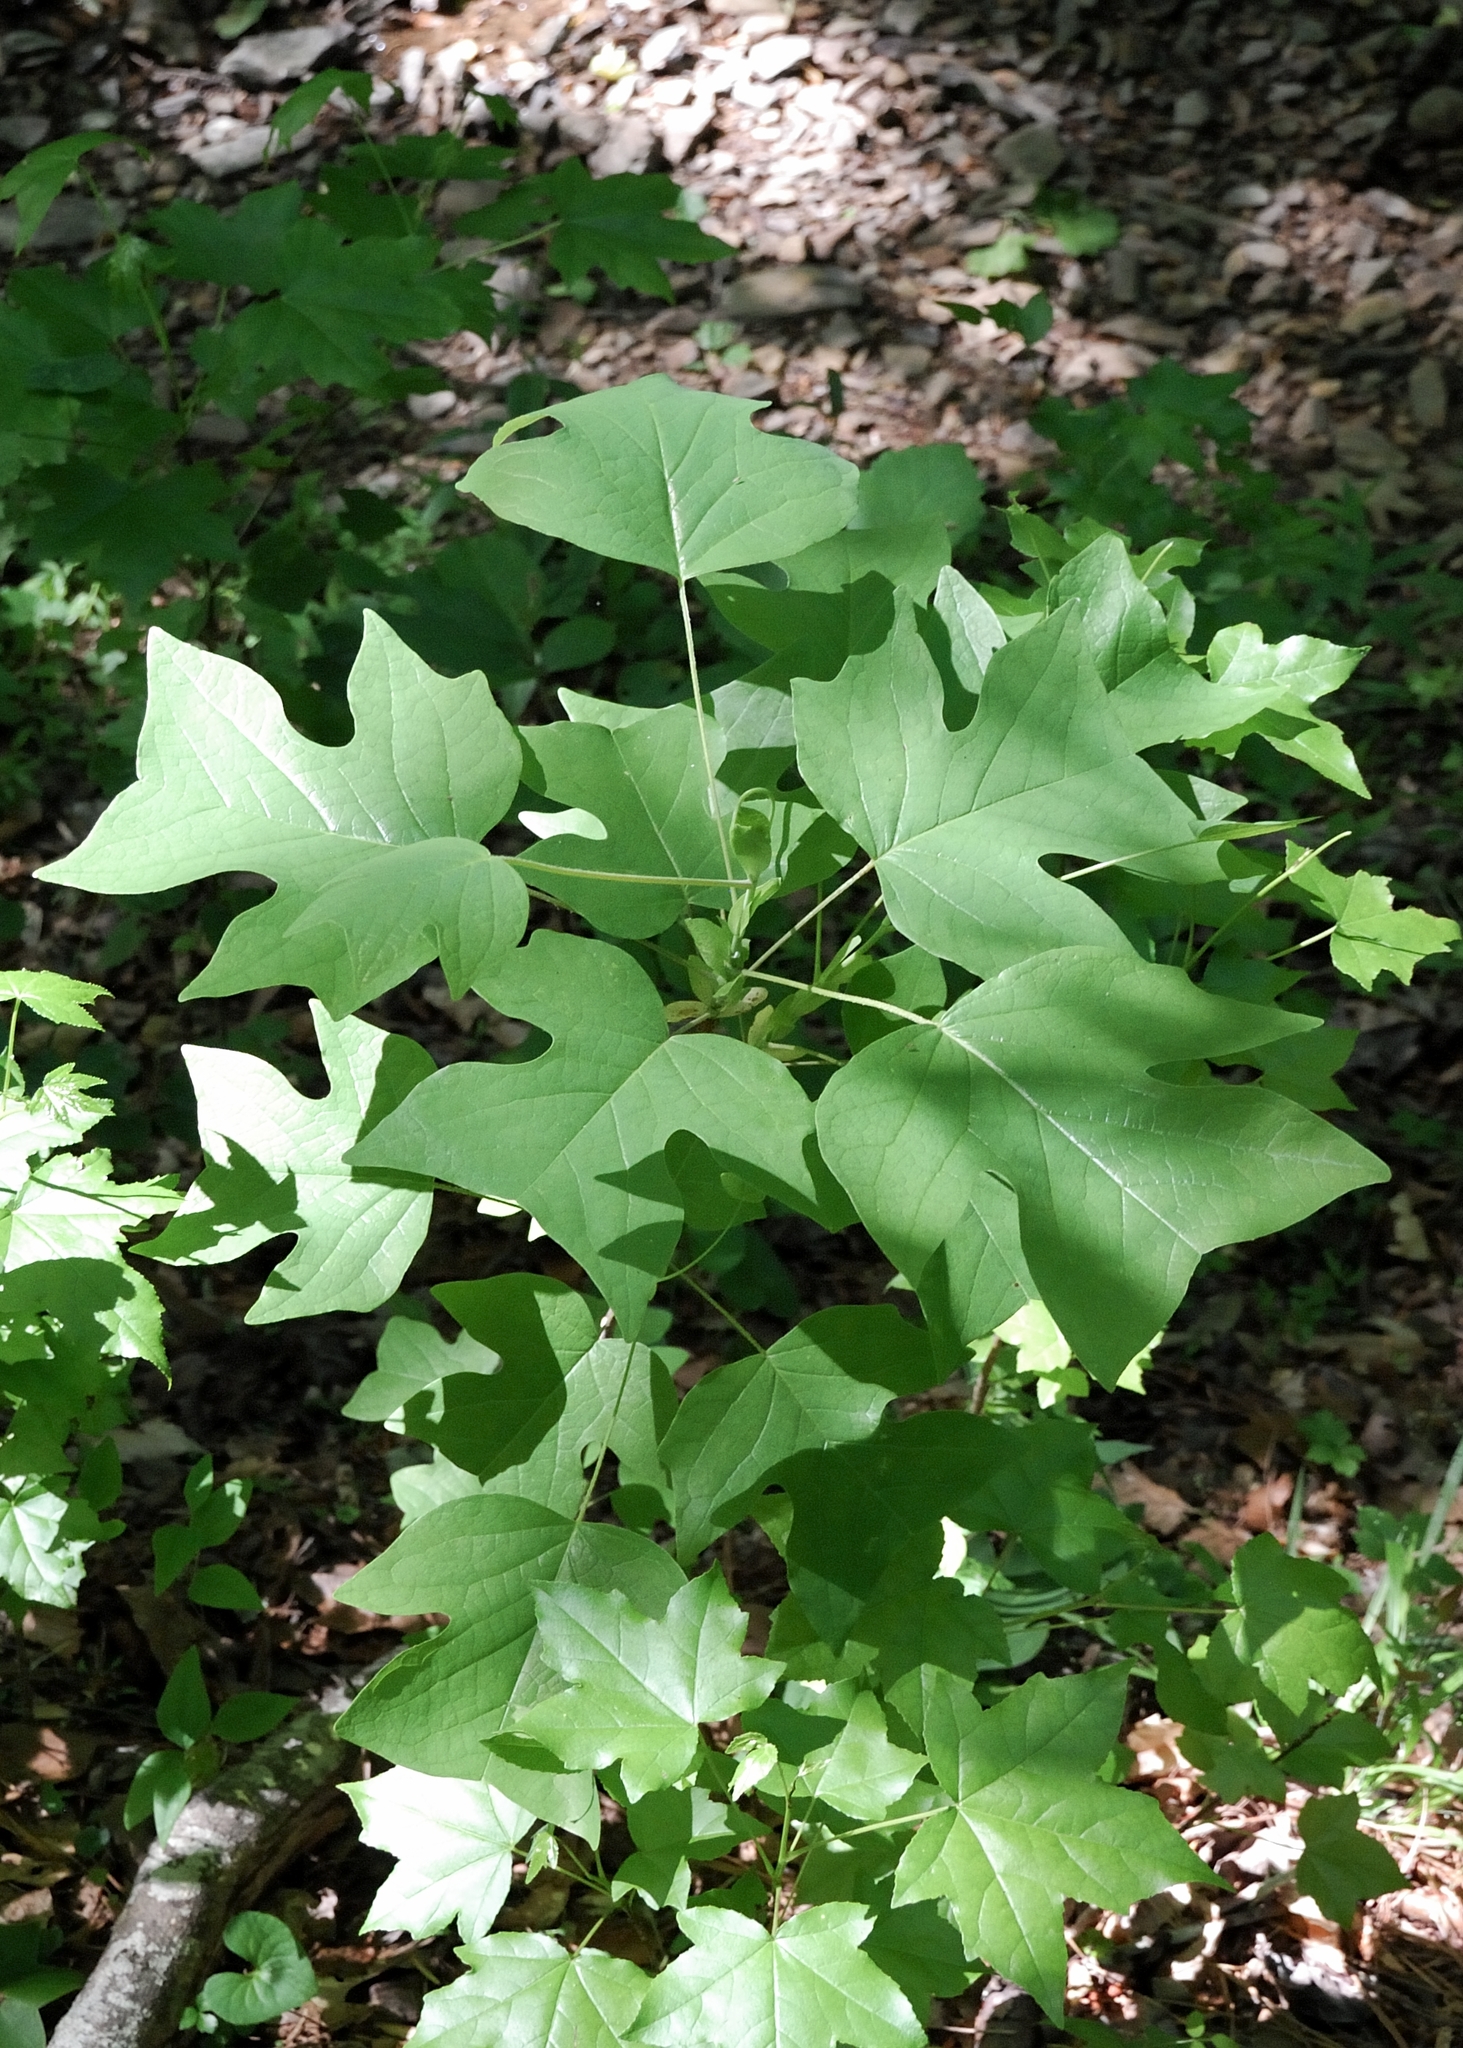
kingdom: Plantae
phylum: Tracheophyta
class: Magnoliopsida
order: Magnoliales
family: Magnoliaceae
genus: Liriodendron
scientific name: Liriodendron tulipifera
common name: Tulip tree
